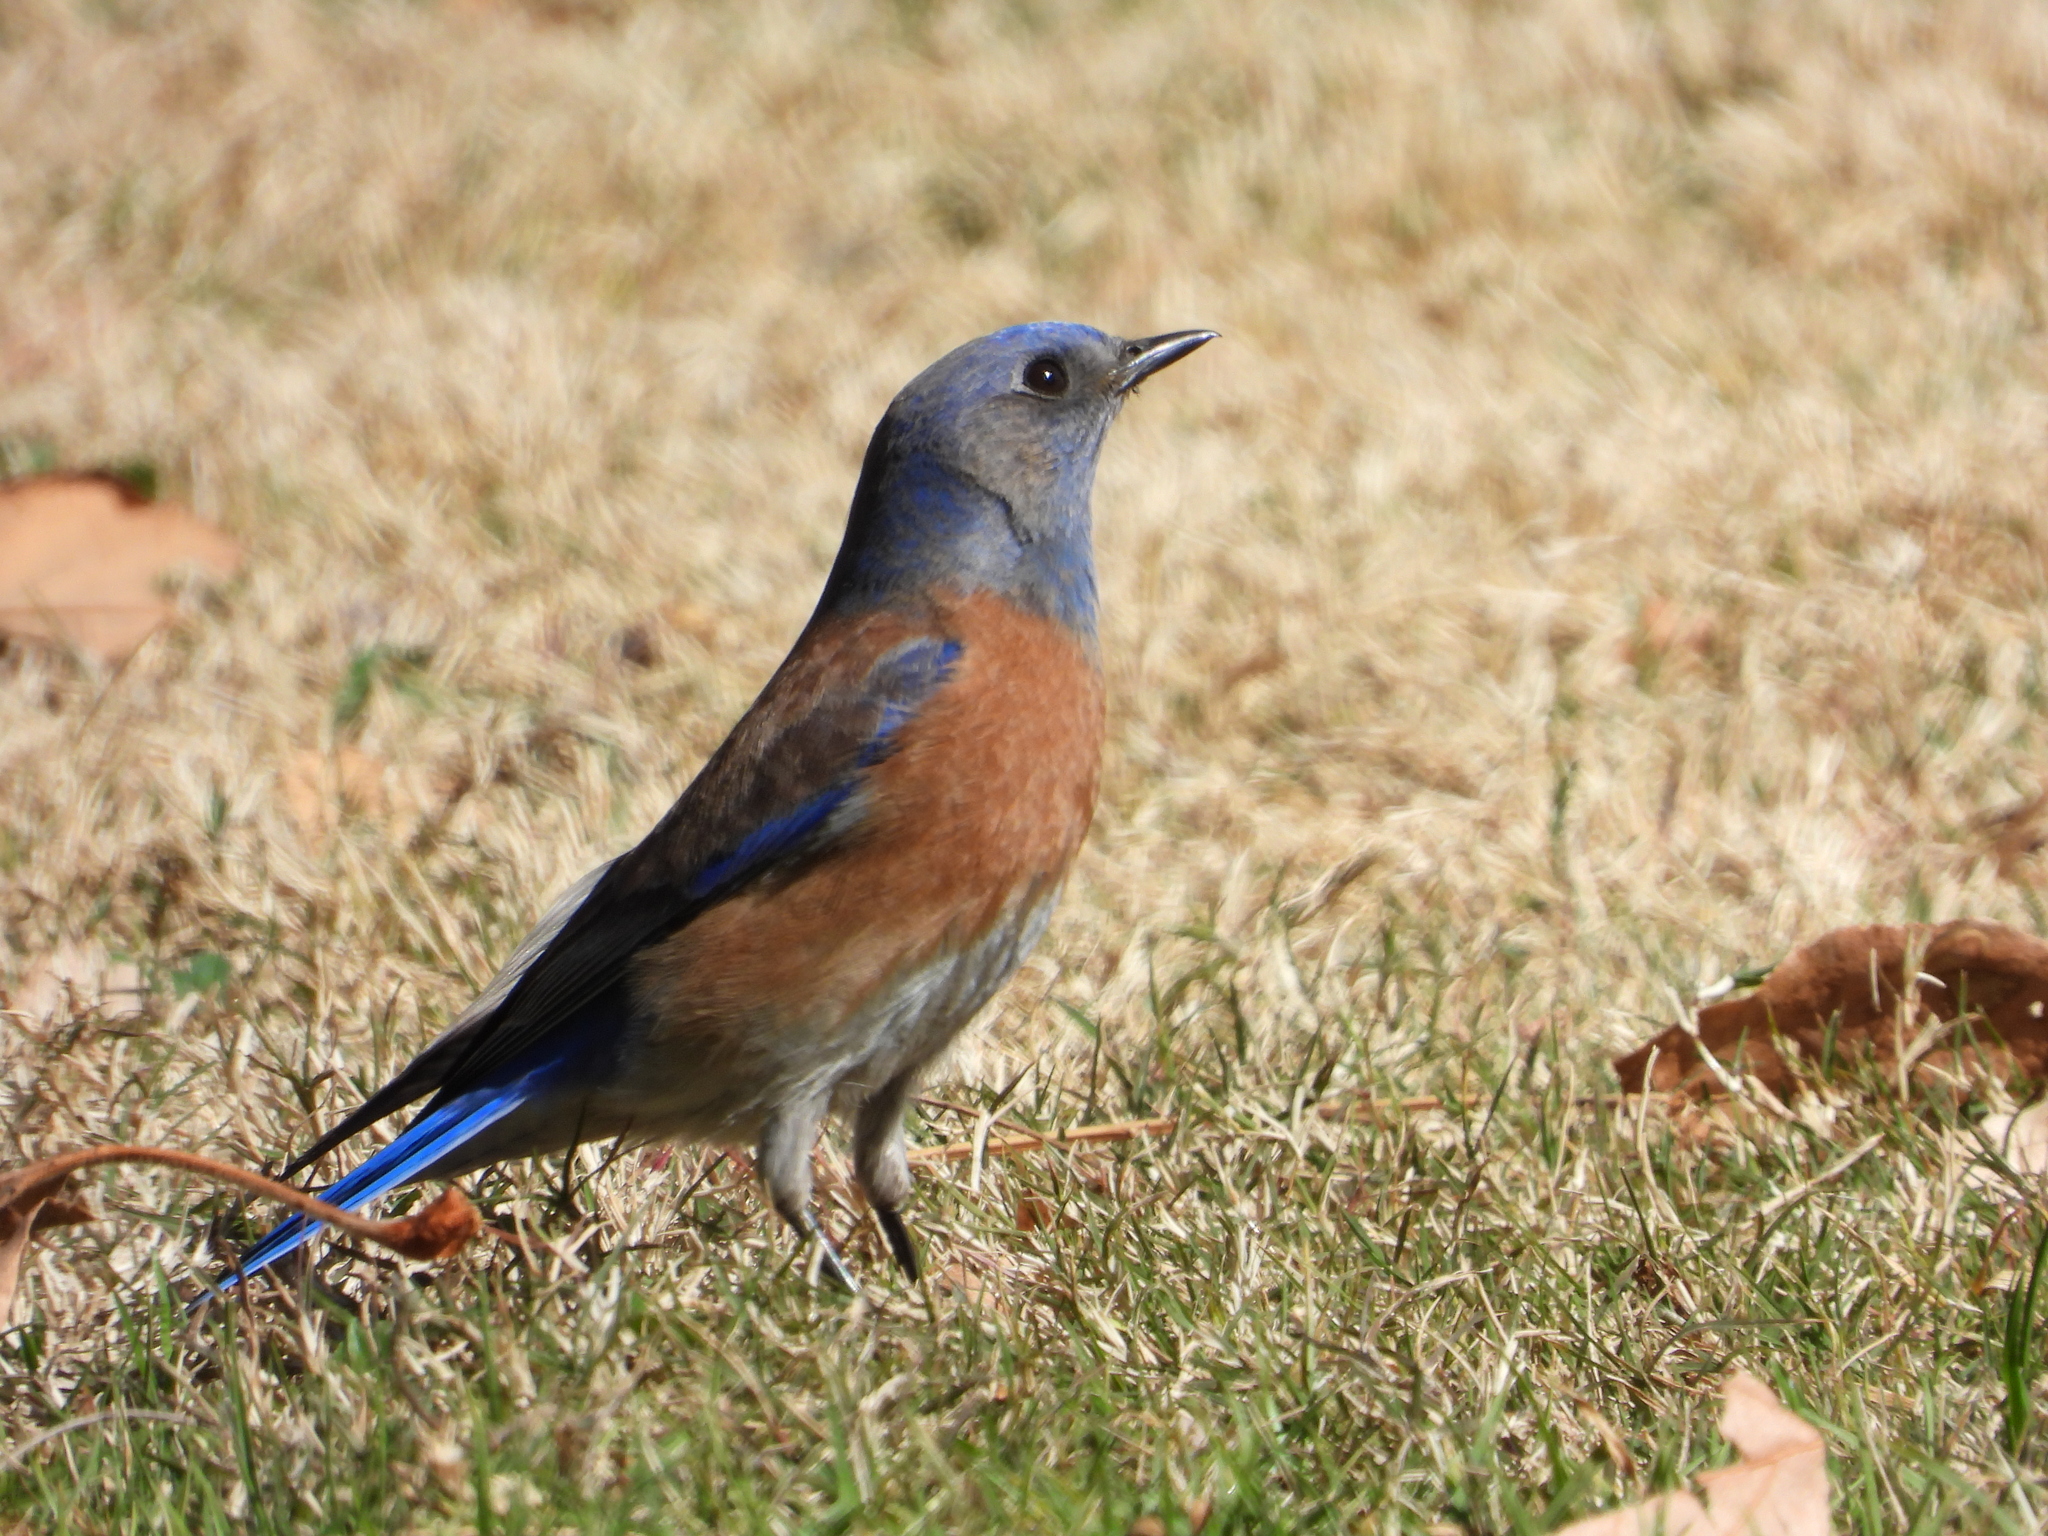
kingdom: Animalia
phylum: Chordata
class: Aves
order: Passeriformes
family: Turdidae
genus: Sialia
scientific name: Sialia mexicana
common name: Western bluebird
